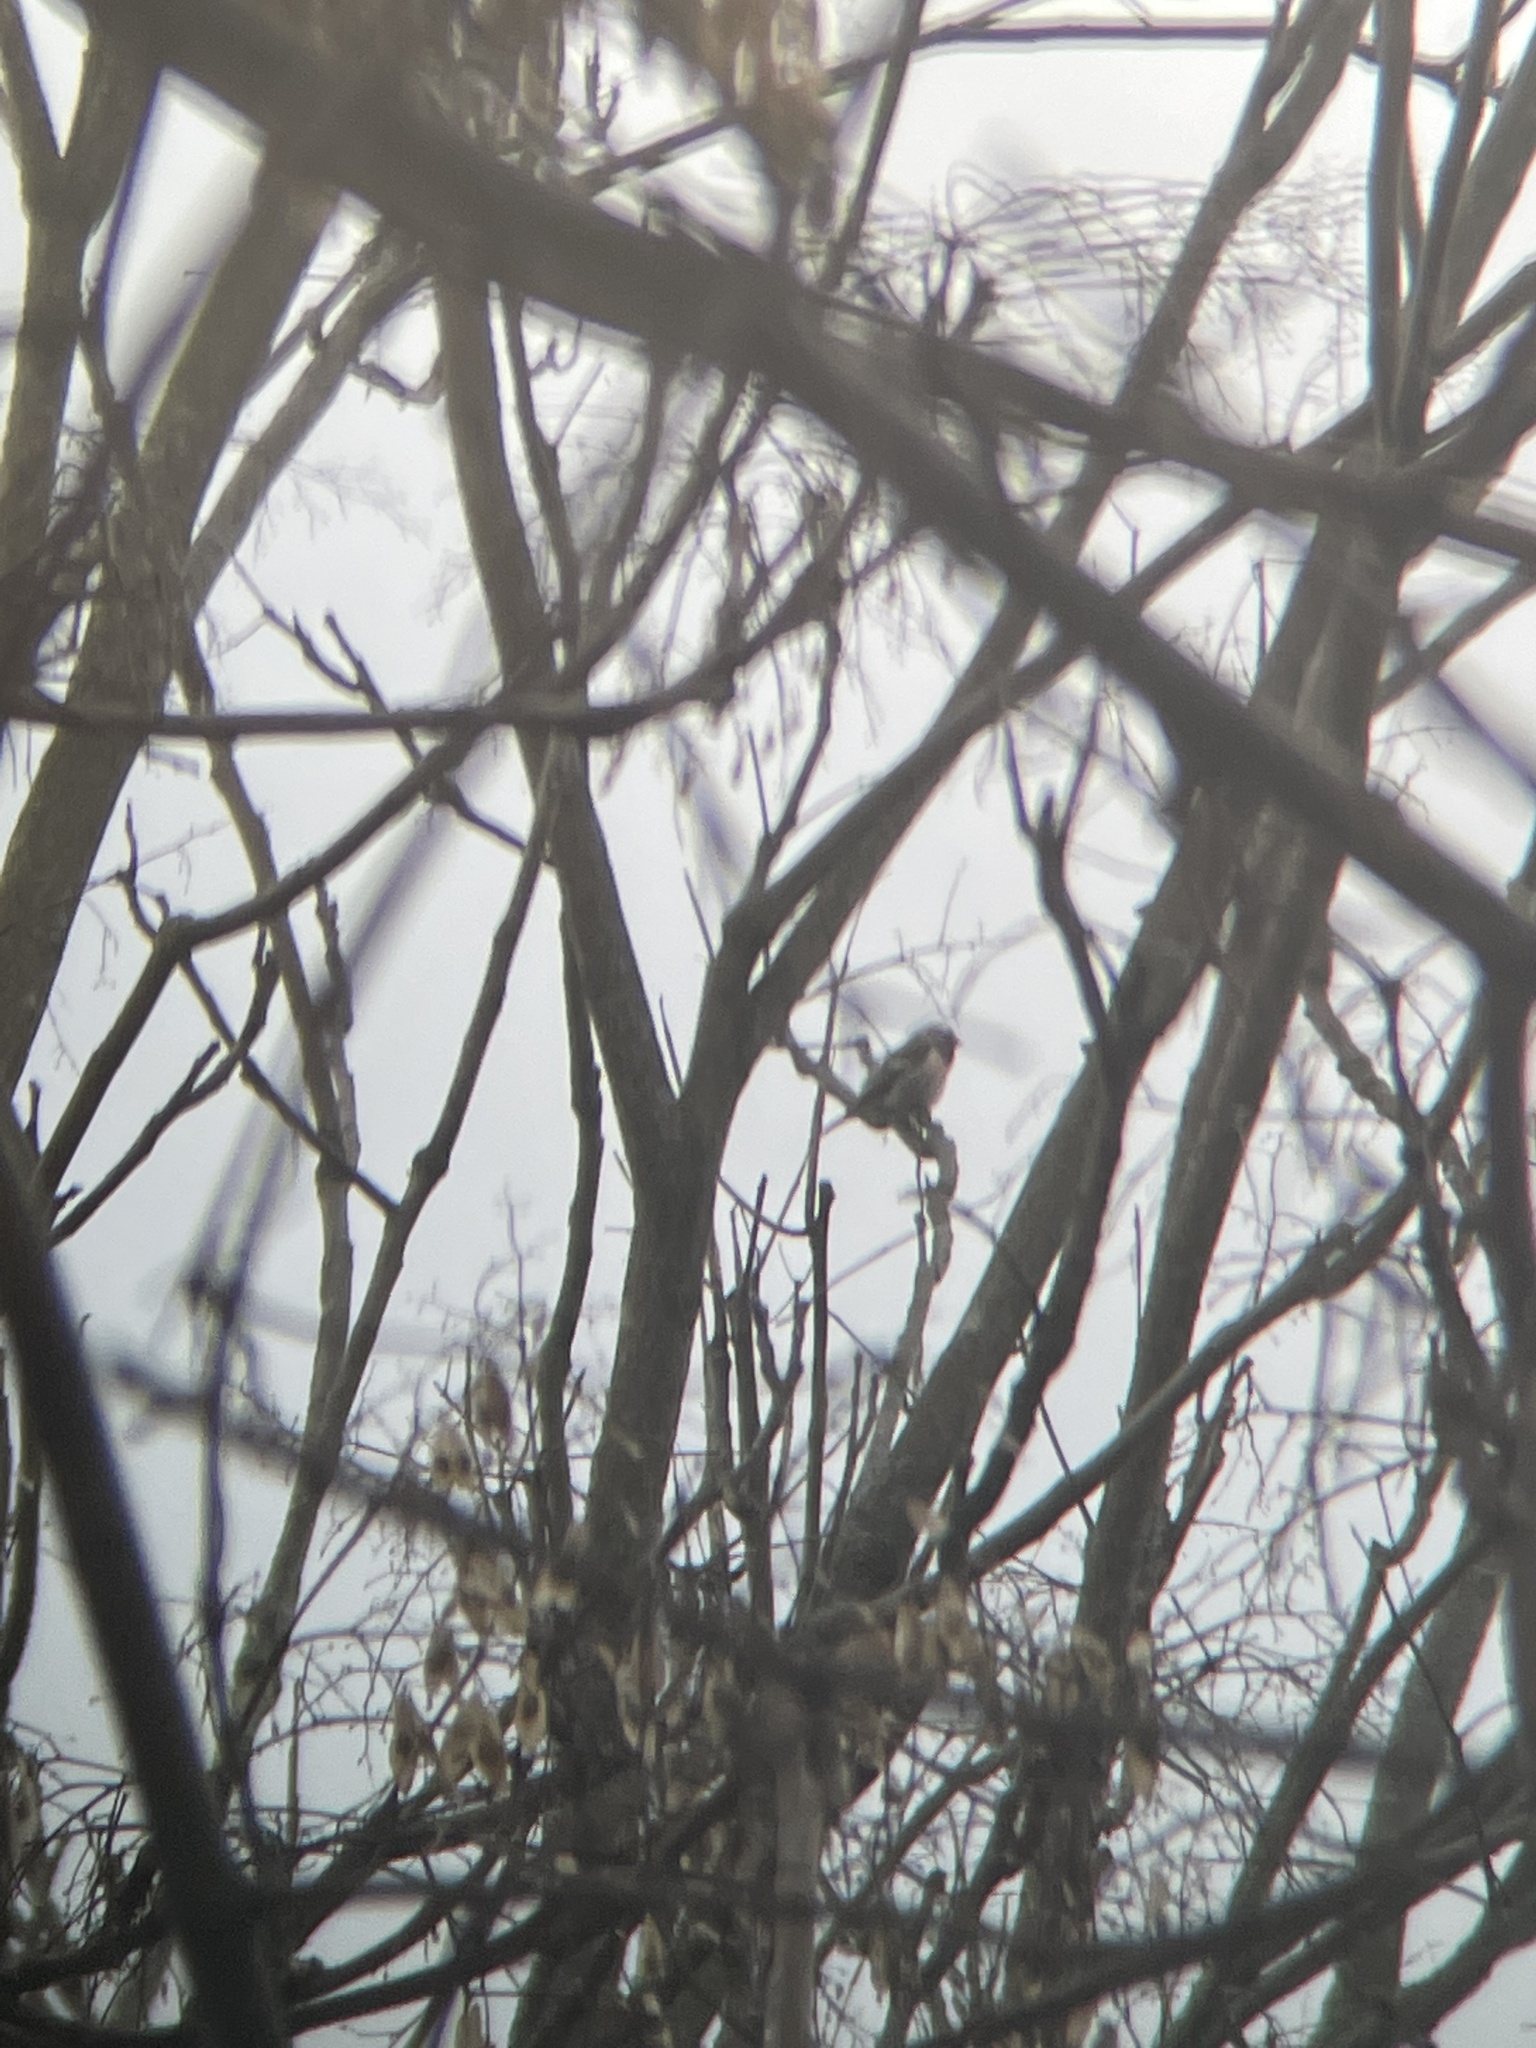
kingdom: Animalia
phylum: Chordata
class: Aves
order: Passeriformes
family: Fringillidae
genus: Acanthis
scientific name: Acanthis flammea
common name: Common redpoll
